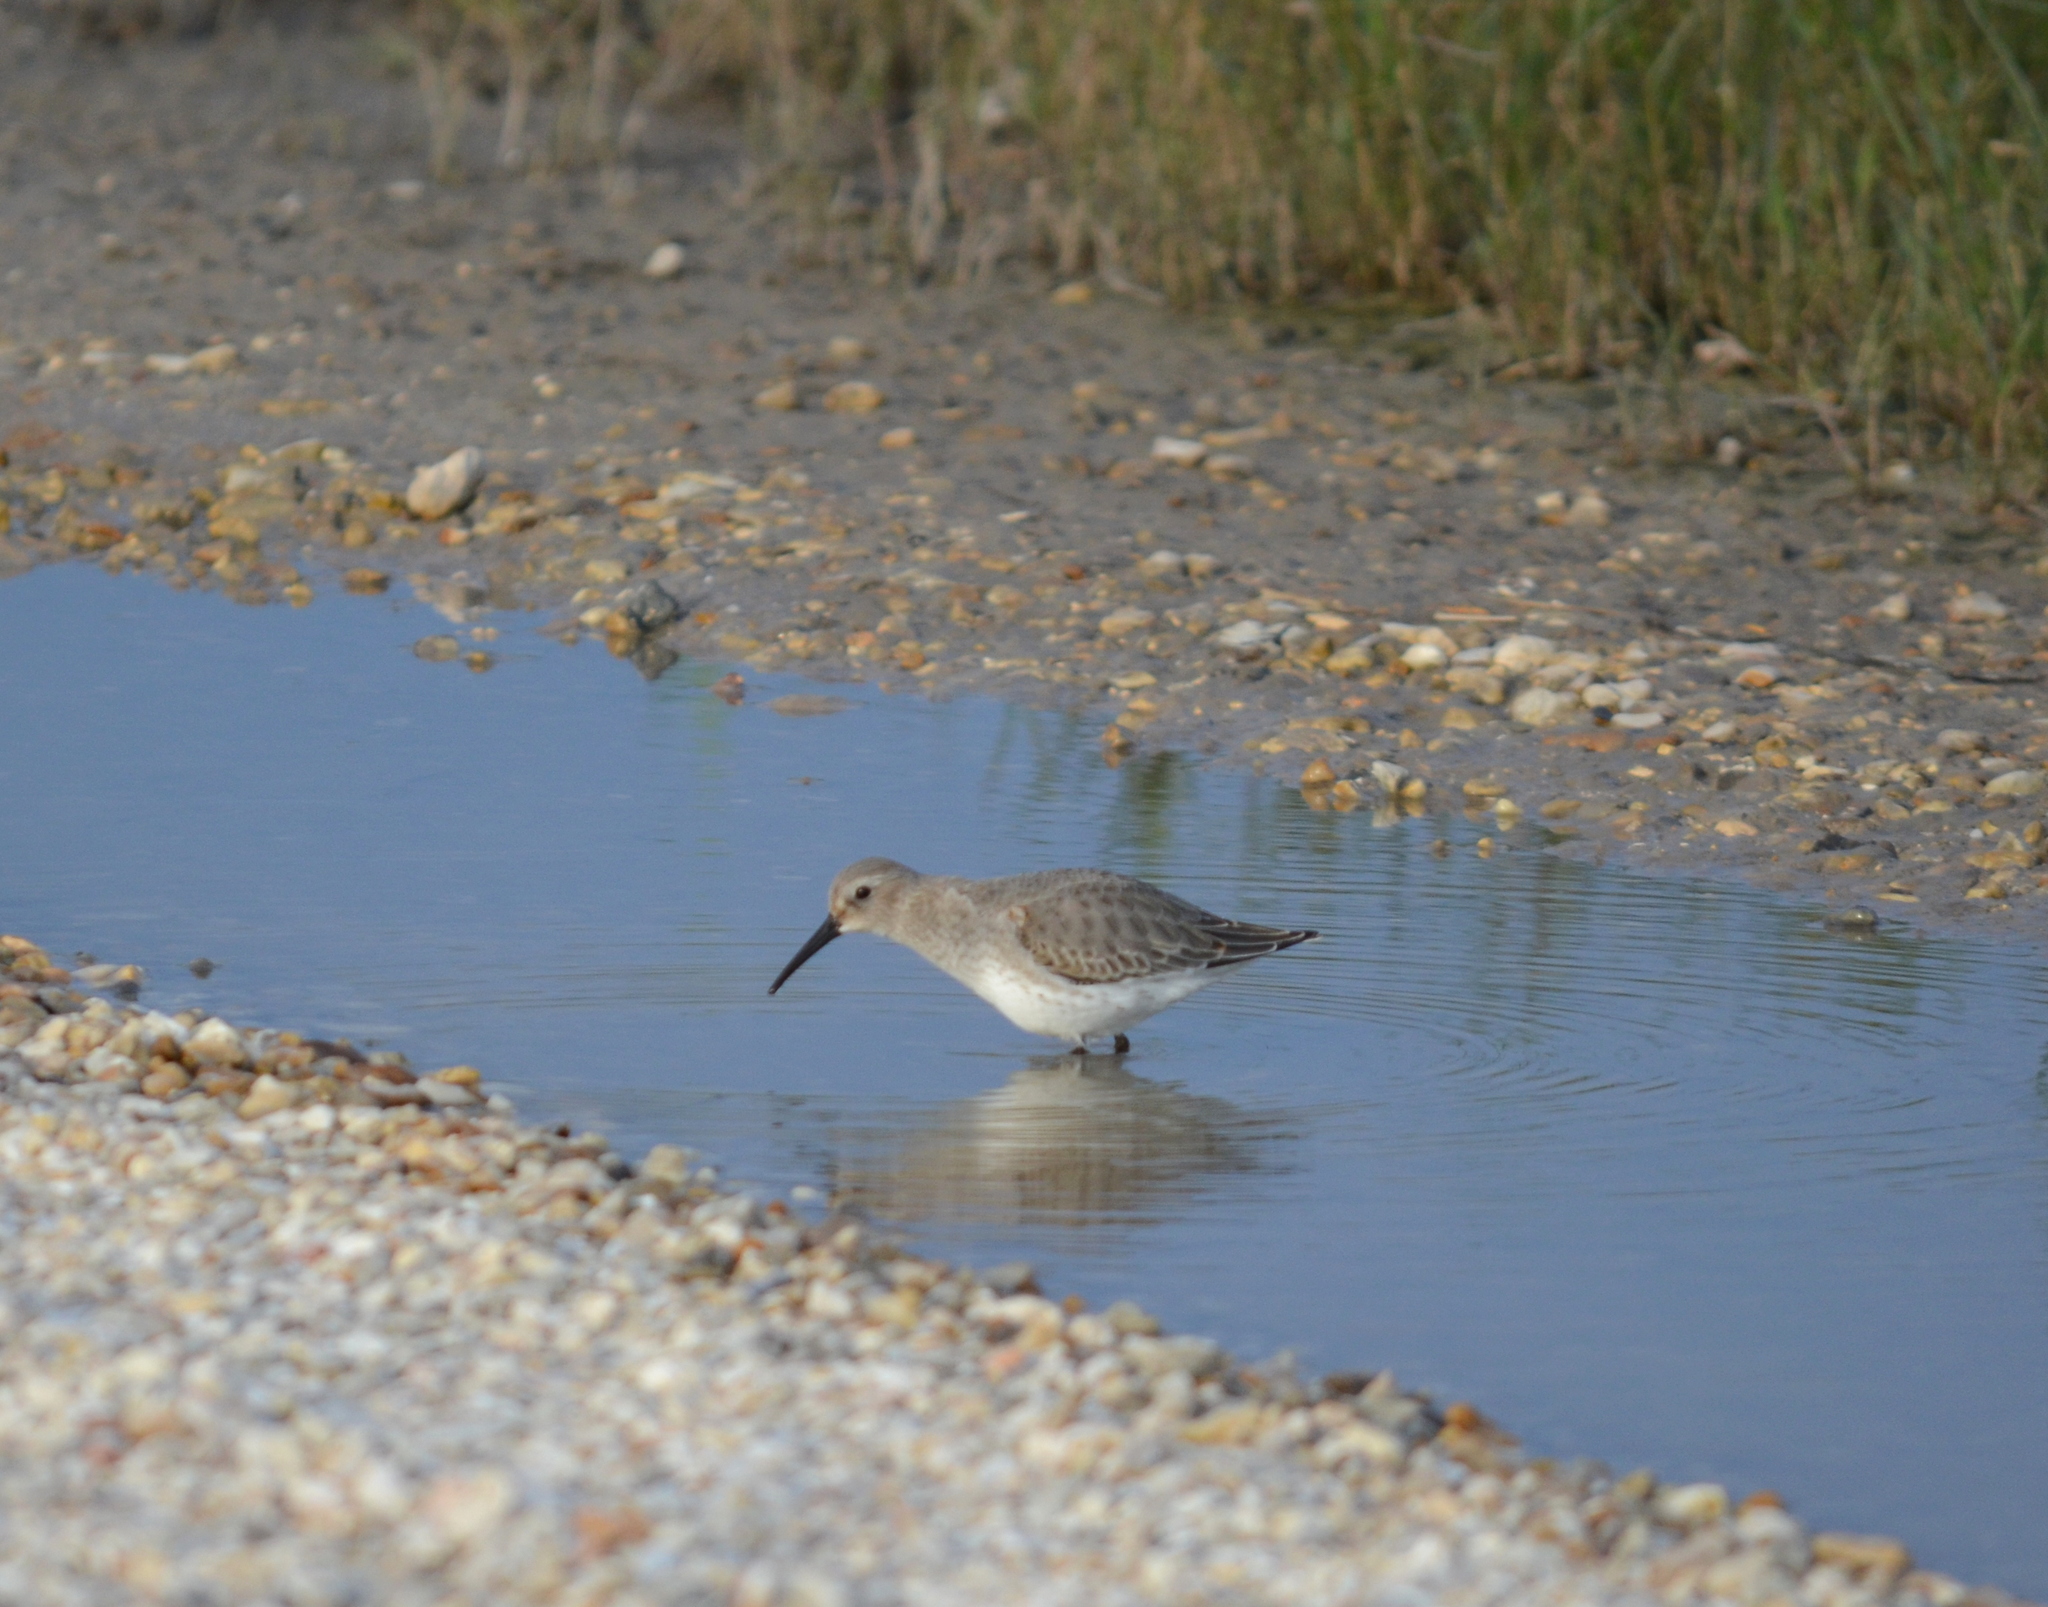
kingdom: Animalia
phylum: Chordata
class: Aves
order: Charadriiformes
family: Scolopacidae
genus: Calidris
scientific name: Calidris alpina
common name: Dunlin
